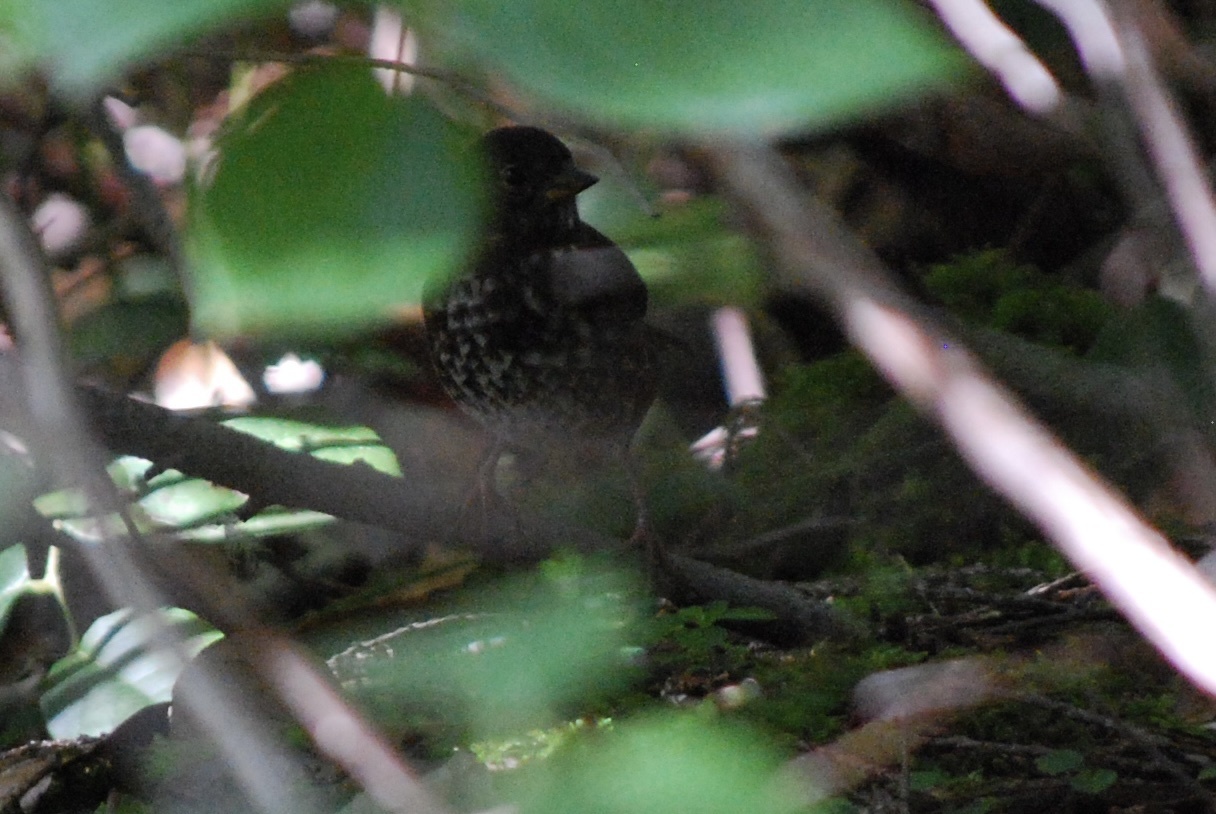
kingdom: Animalia
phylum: Chordata
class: Aves
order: Passeriformes
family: Passerellidae
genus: Passerella
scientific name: Passerella iliaca
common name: Fox sparrow
